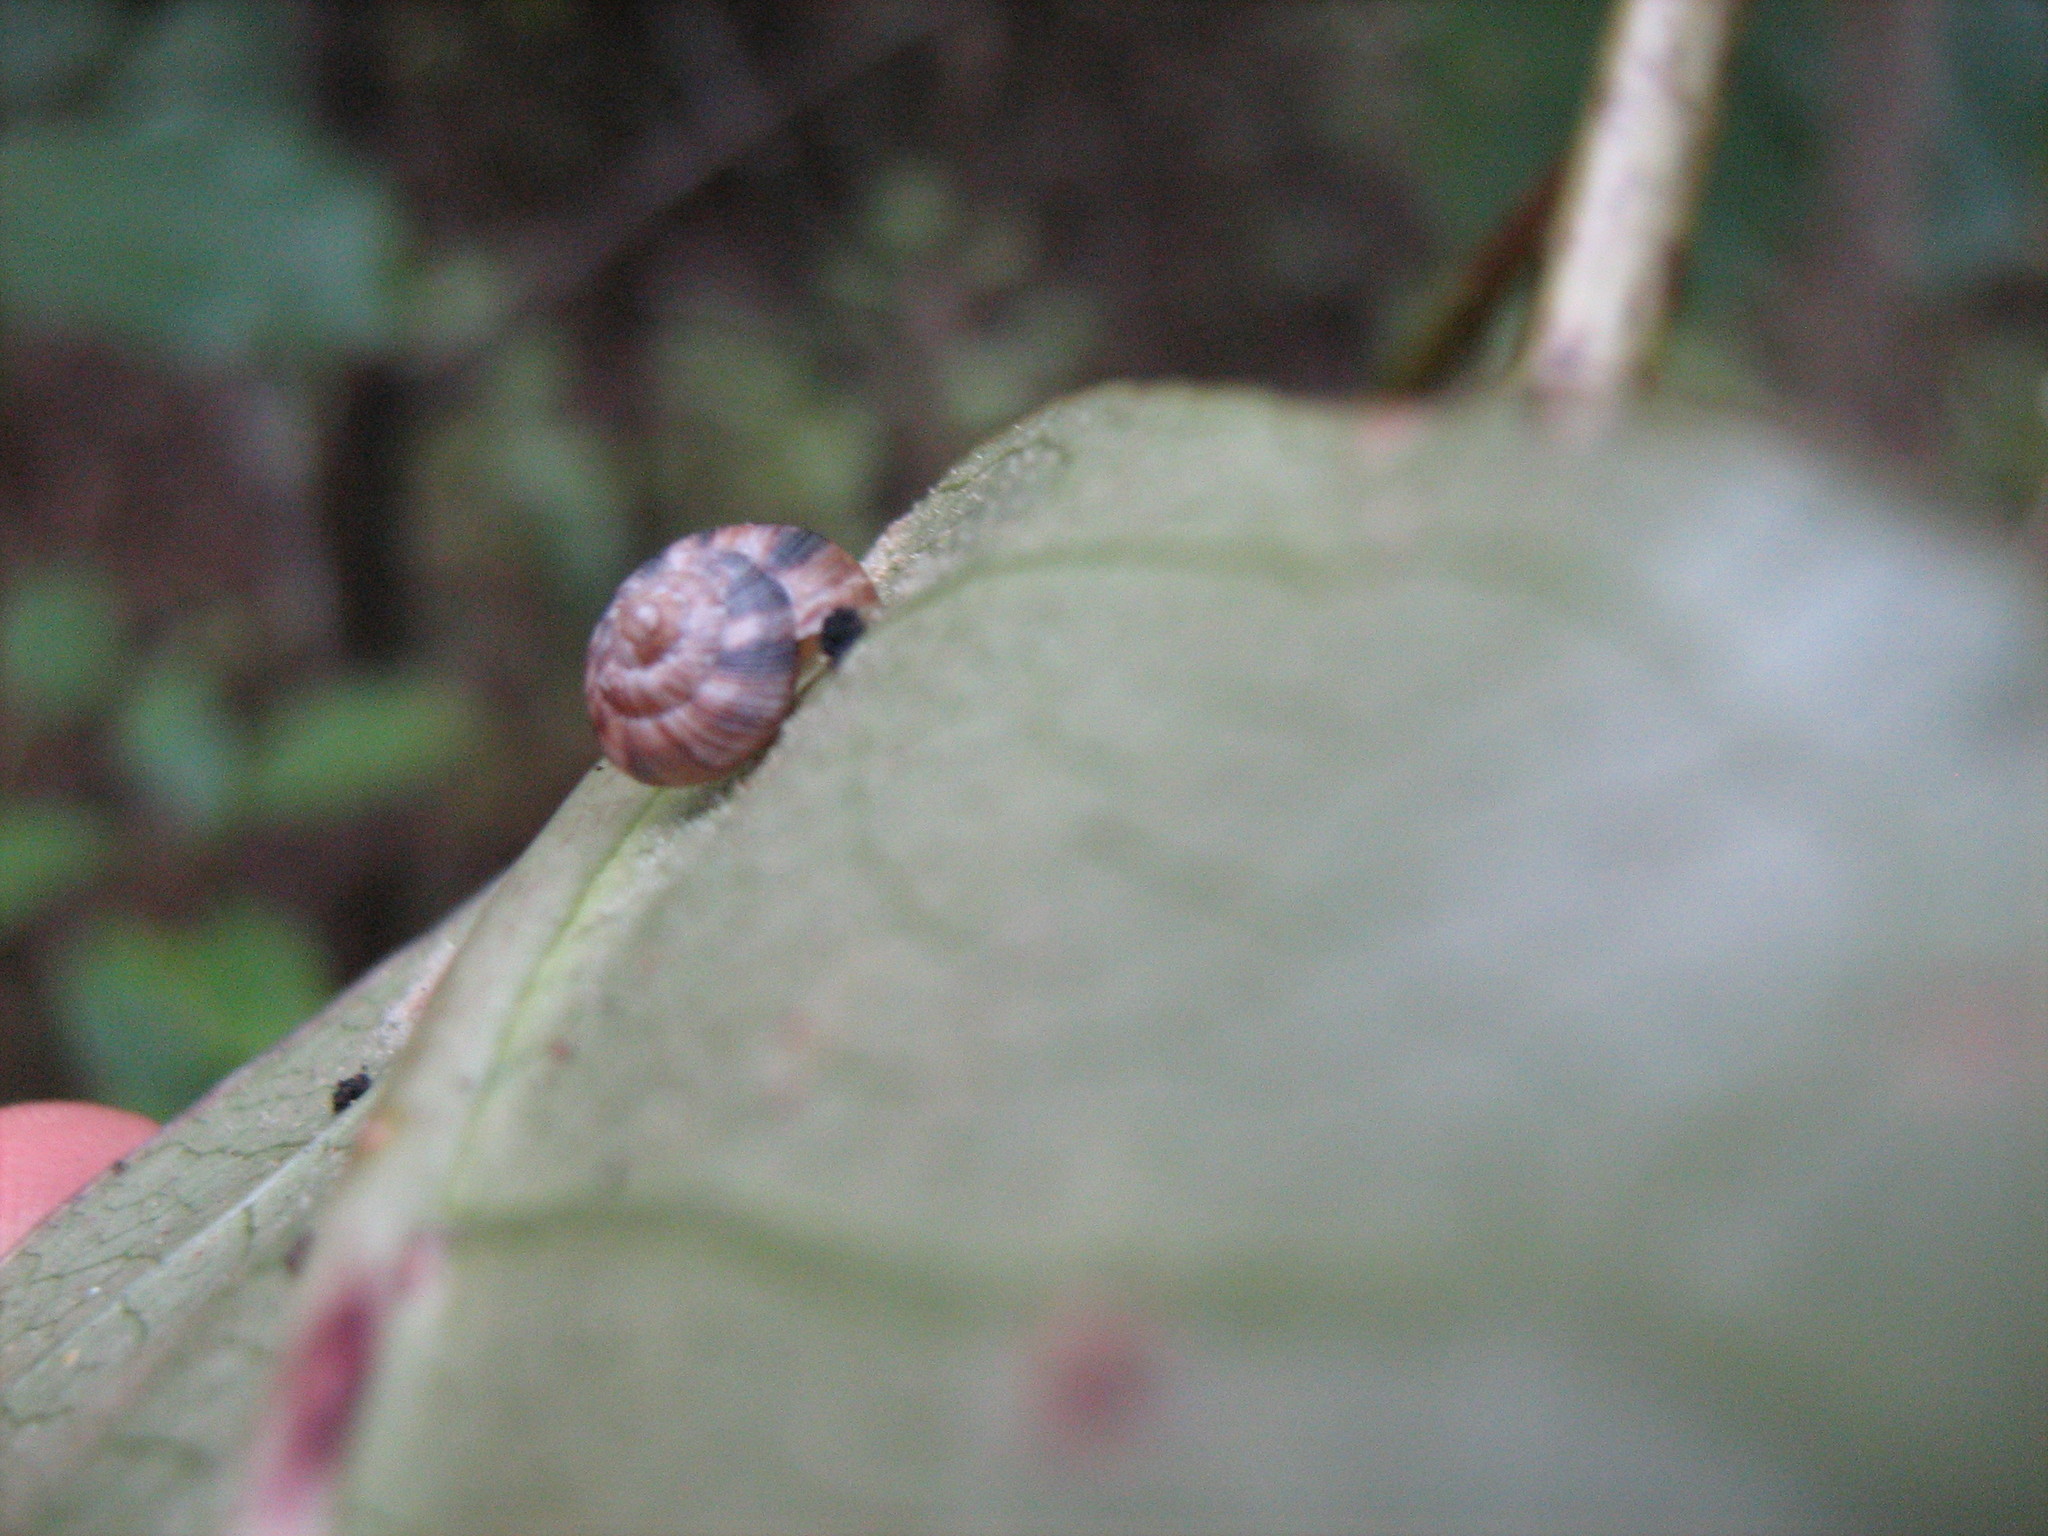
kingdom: Animalia
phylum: Mollusca
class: Gastropoda
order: Stylommatophora
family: Charopidae
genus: Serpho
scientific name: Serpho
